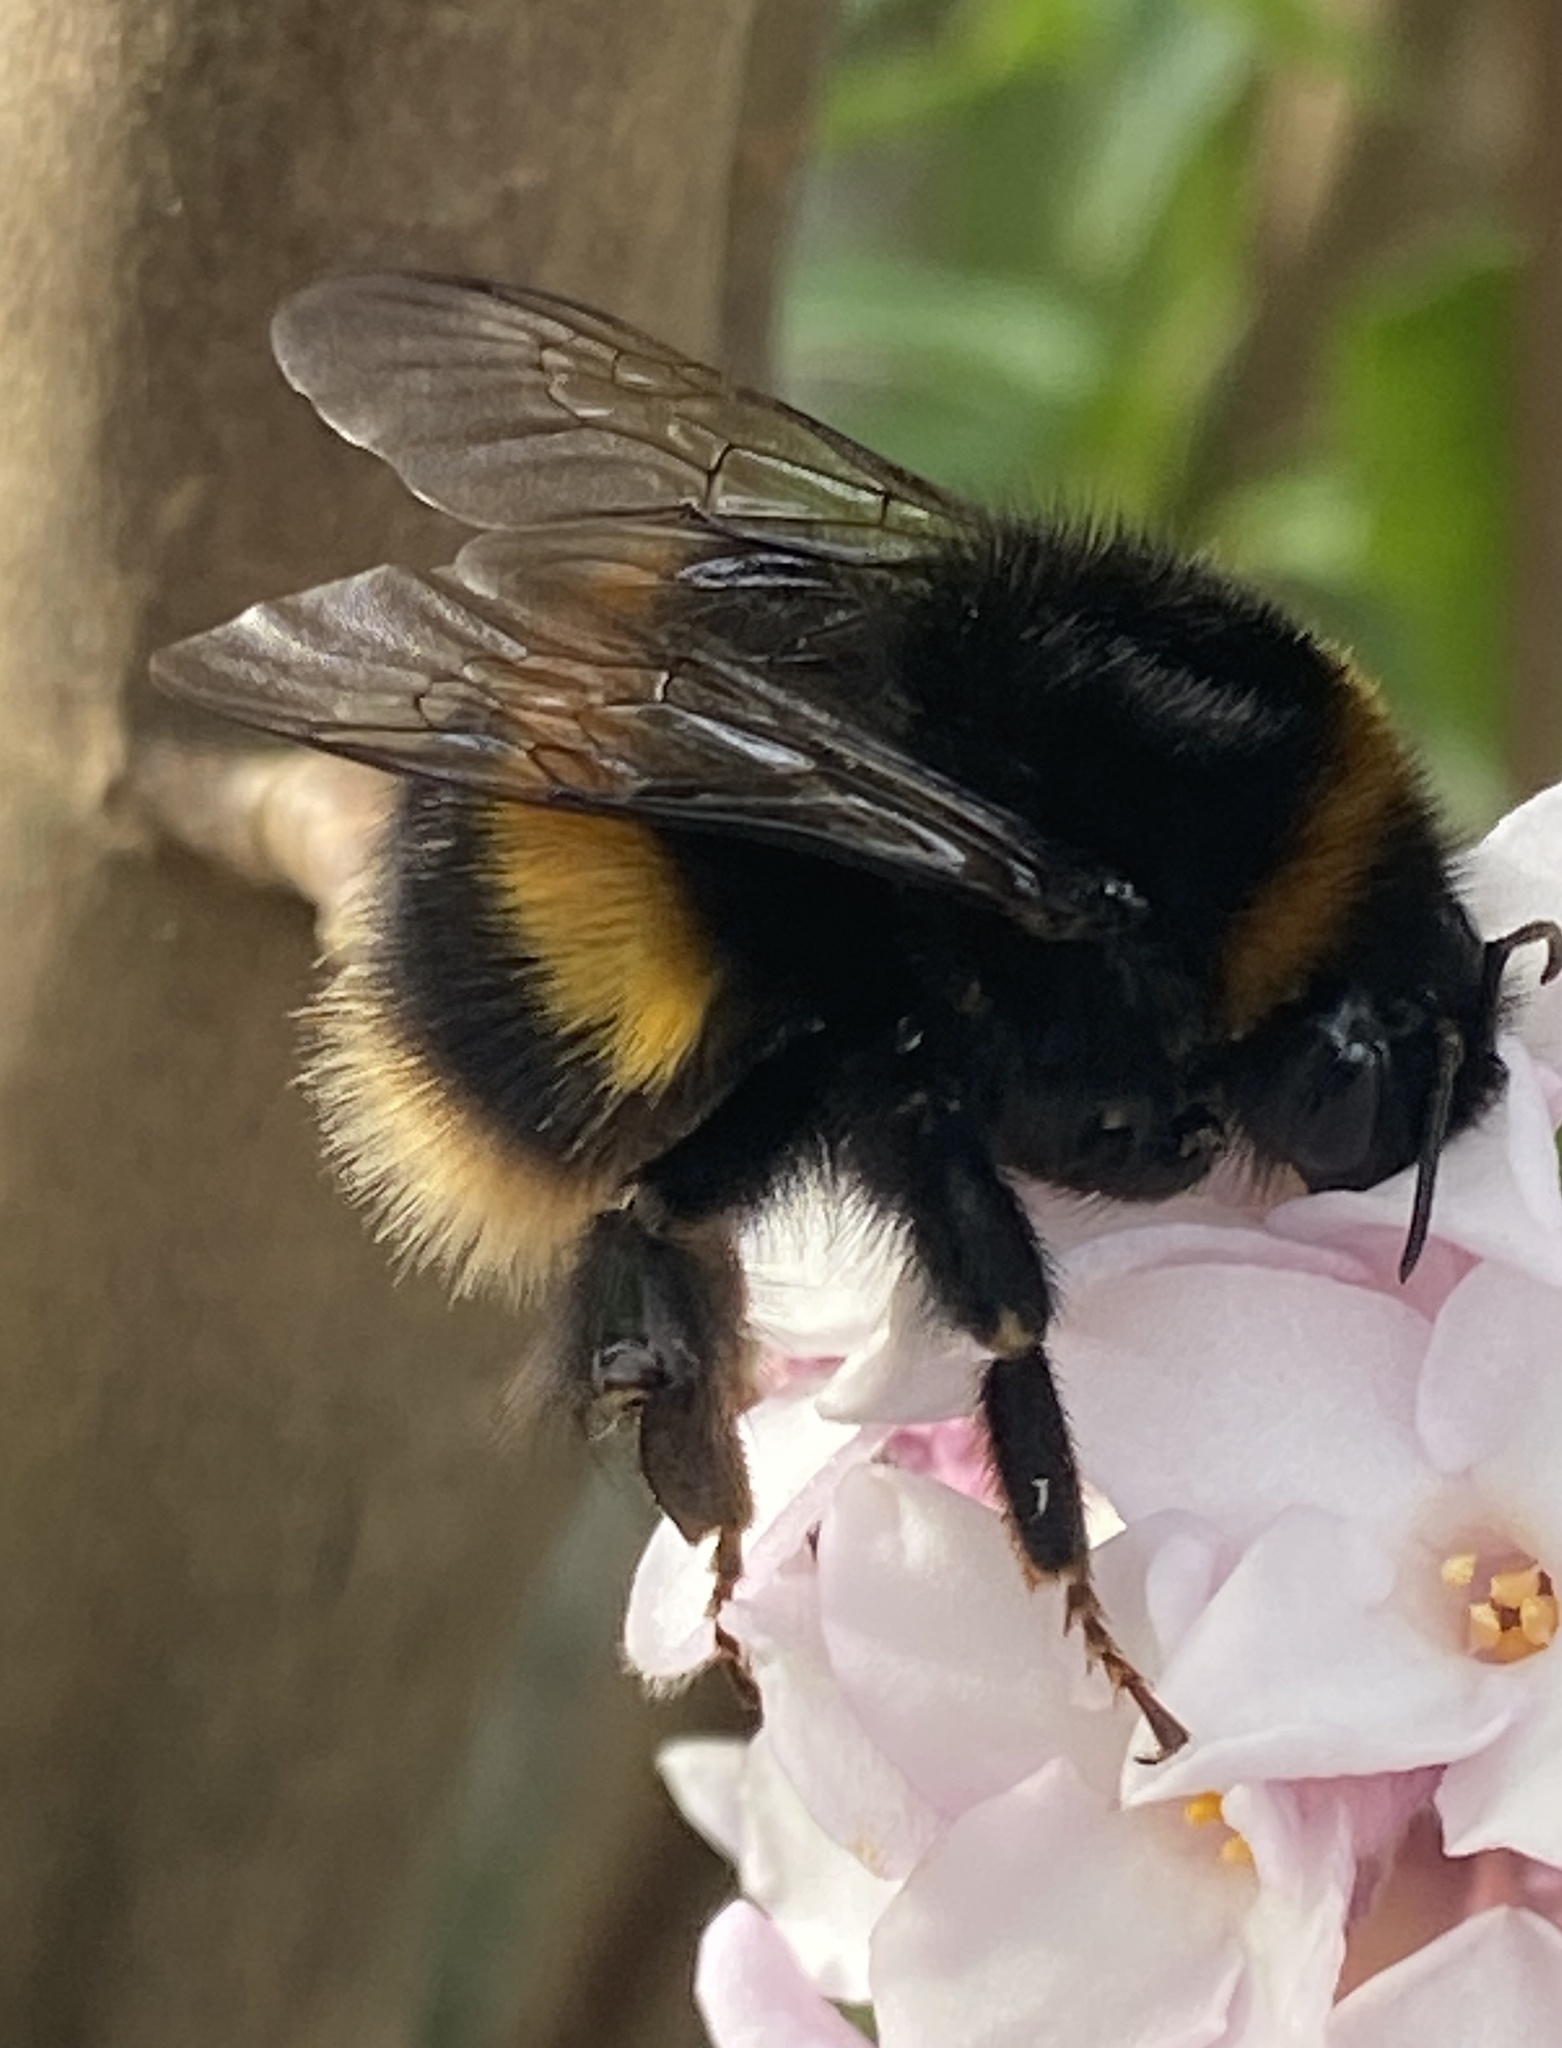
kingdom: Animalia
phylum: Arthropoda
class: Insecta
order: Hymenoptera
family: Apidae
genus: Bombus
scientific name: Bombus terrestris
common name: Buff-tailed bumblebee
